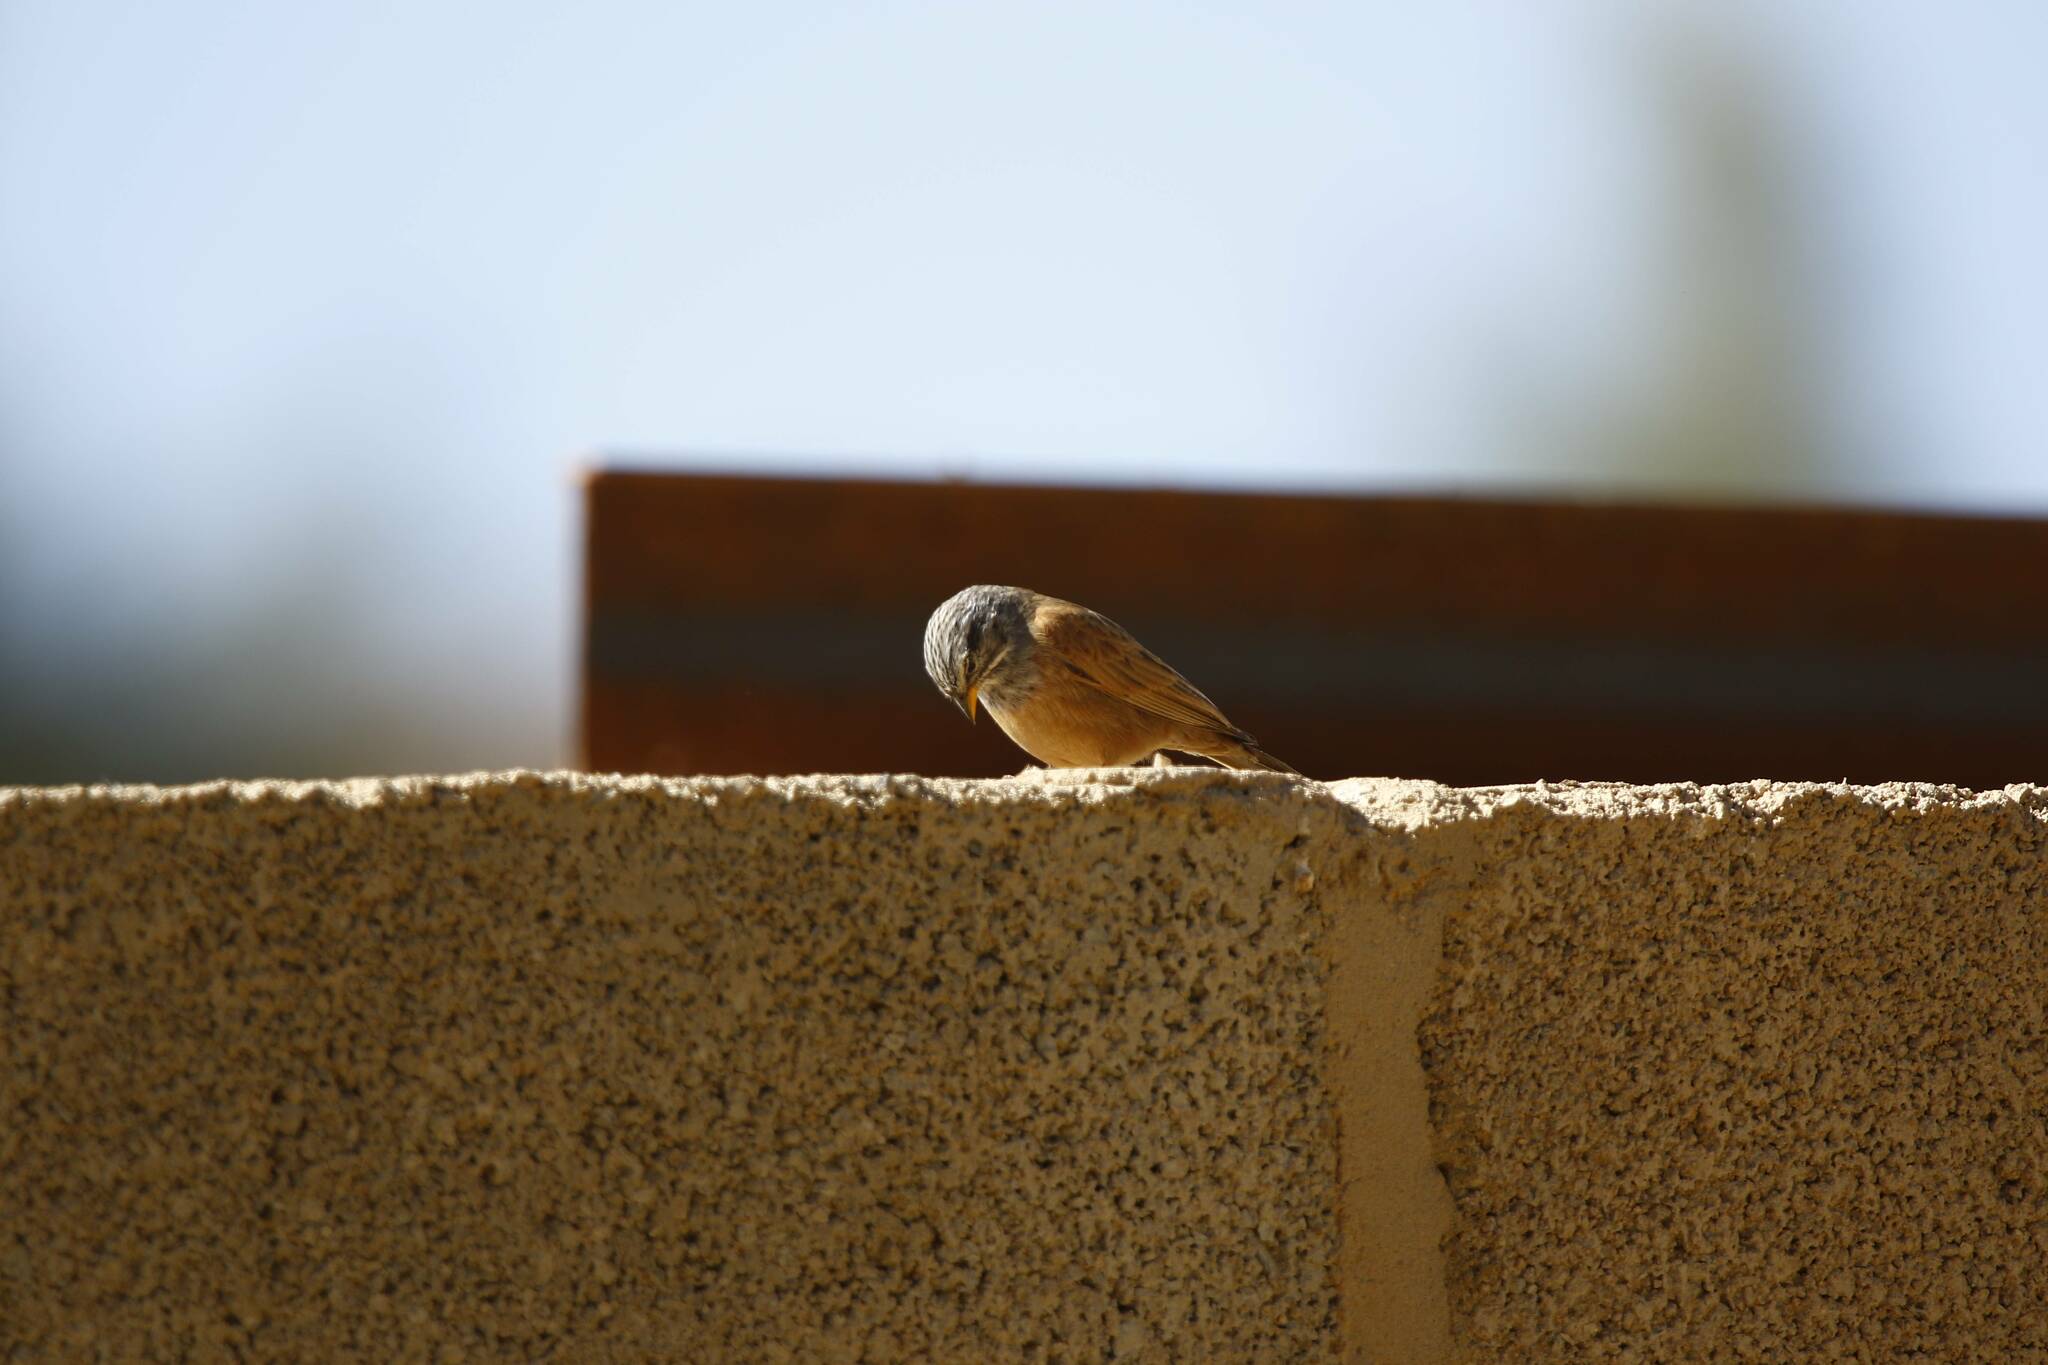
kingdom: Animalia
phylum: Chordata
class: Aves
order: Passeriformes
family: Emberizidae
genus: Emberiza
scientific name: Emberiza sahari
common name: House bunting
